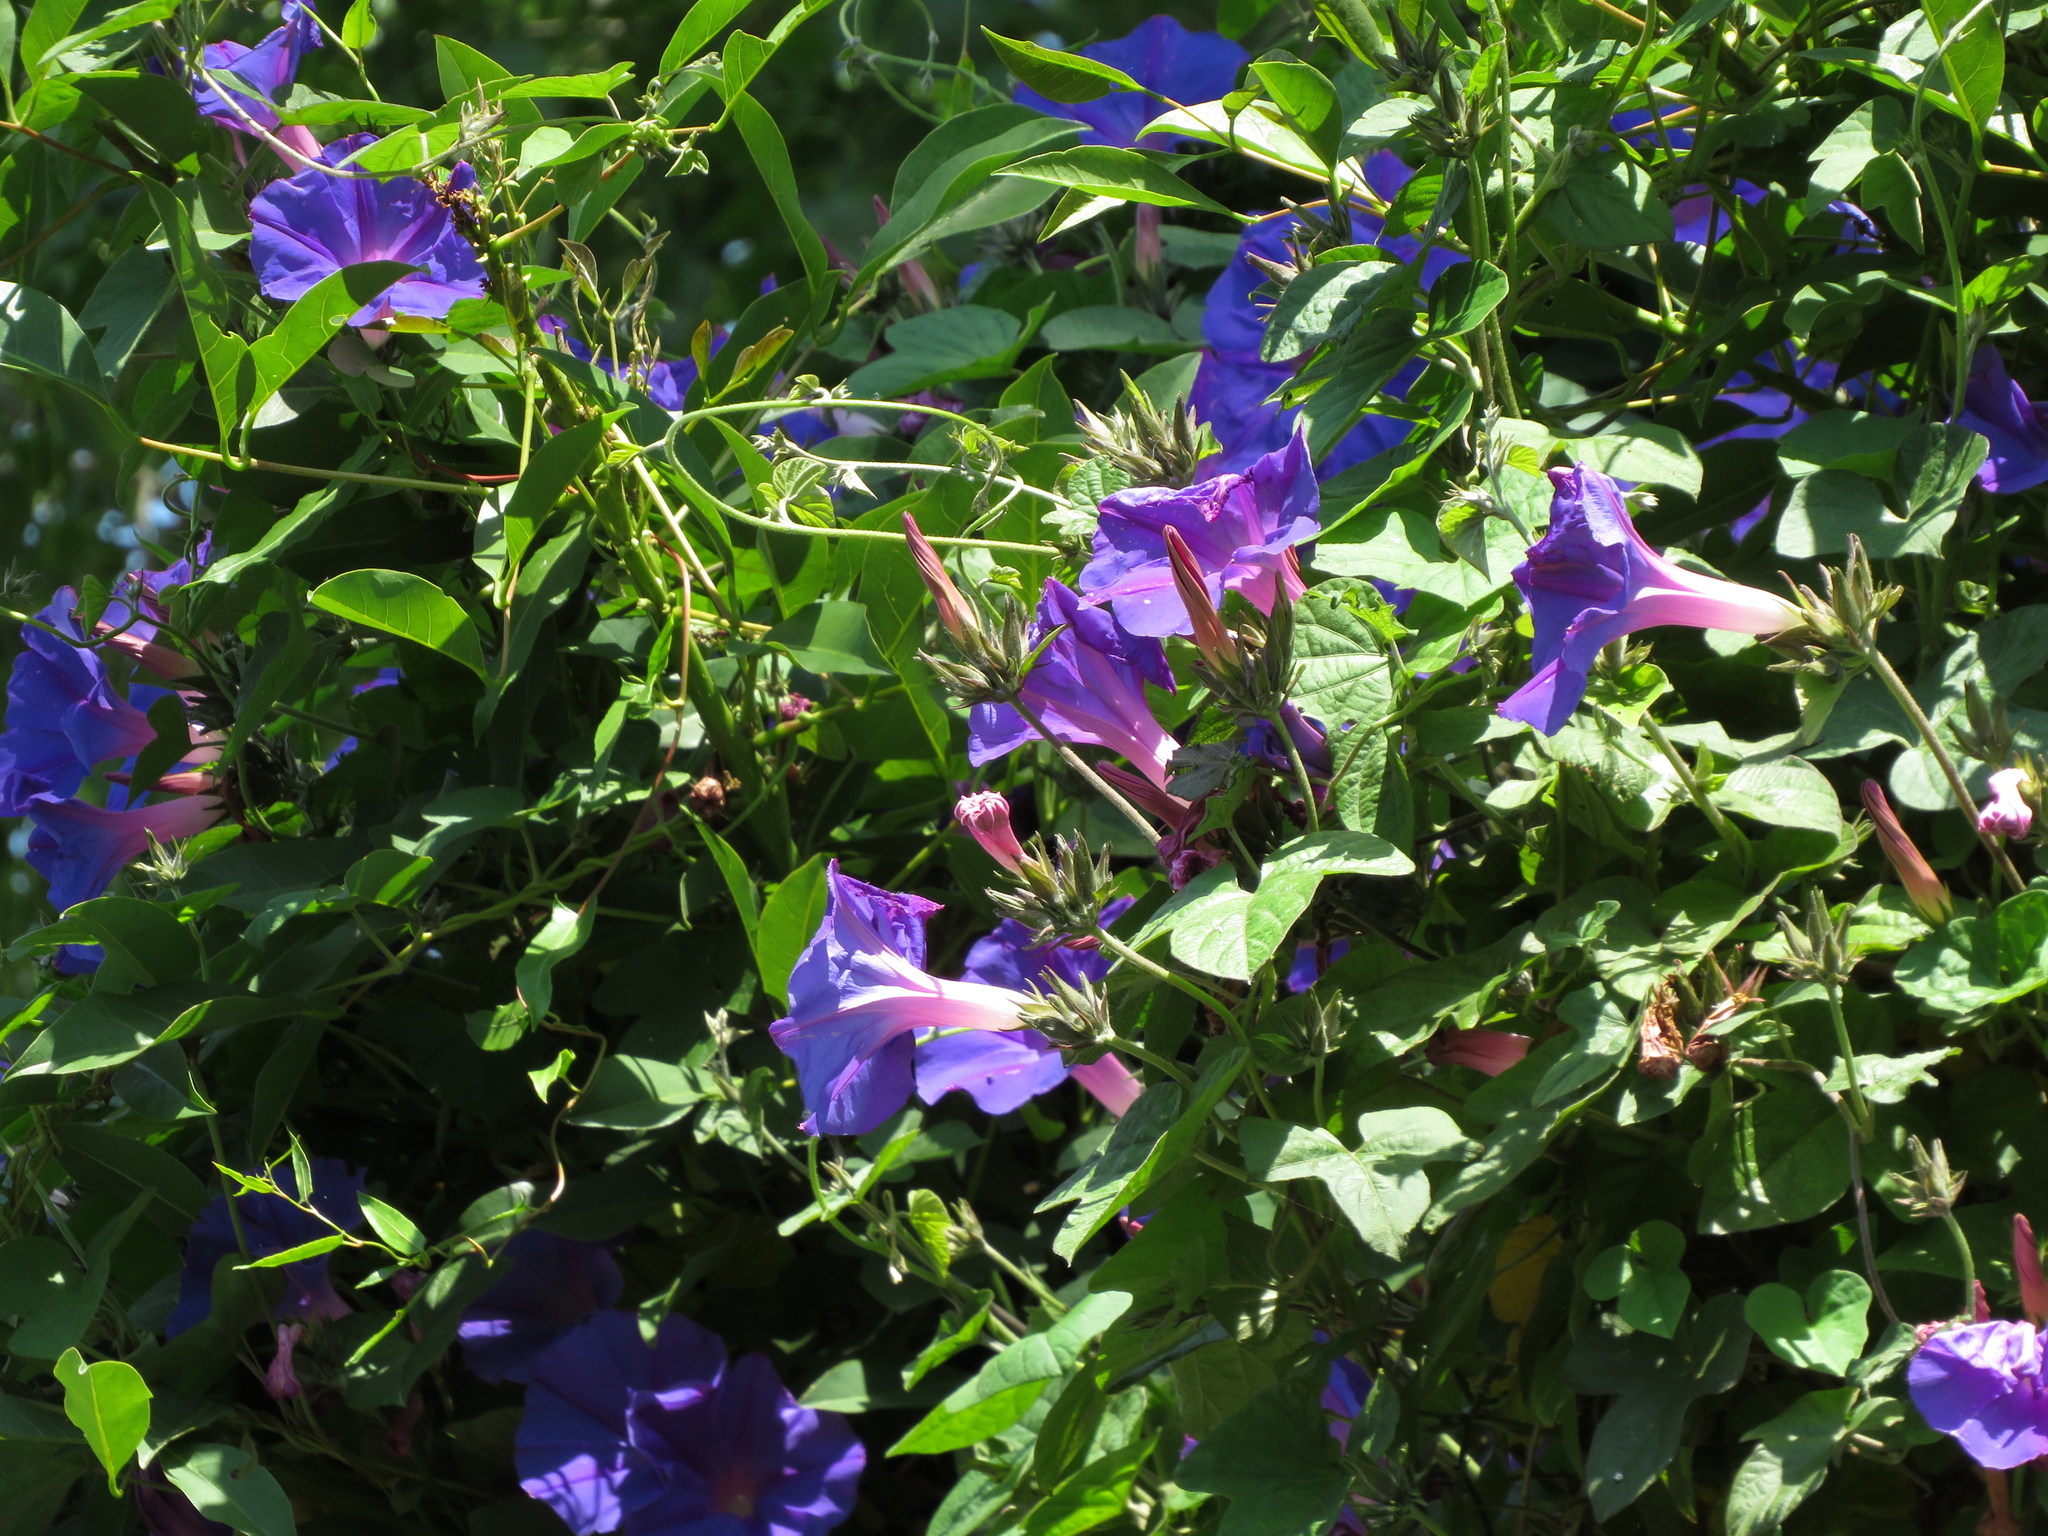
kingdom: Plantae
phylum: Tracheophyta
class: Magnoliopsida
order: Solanales
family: Convolvulaceae
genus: Ipomoea
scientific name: Ipomoea indica
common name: Blue dawnflower
